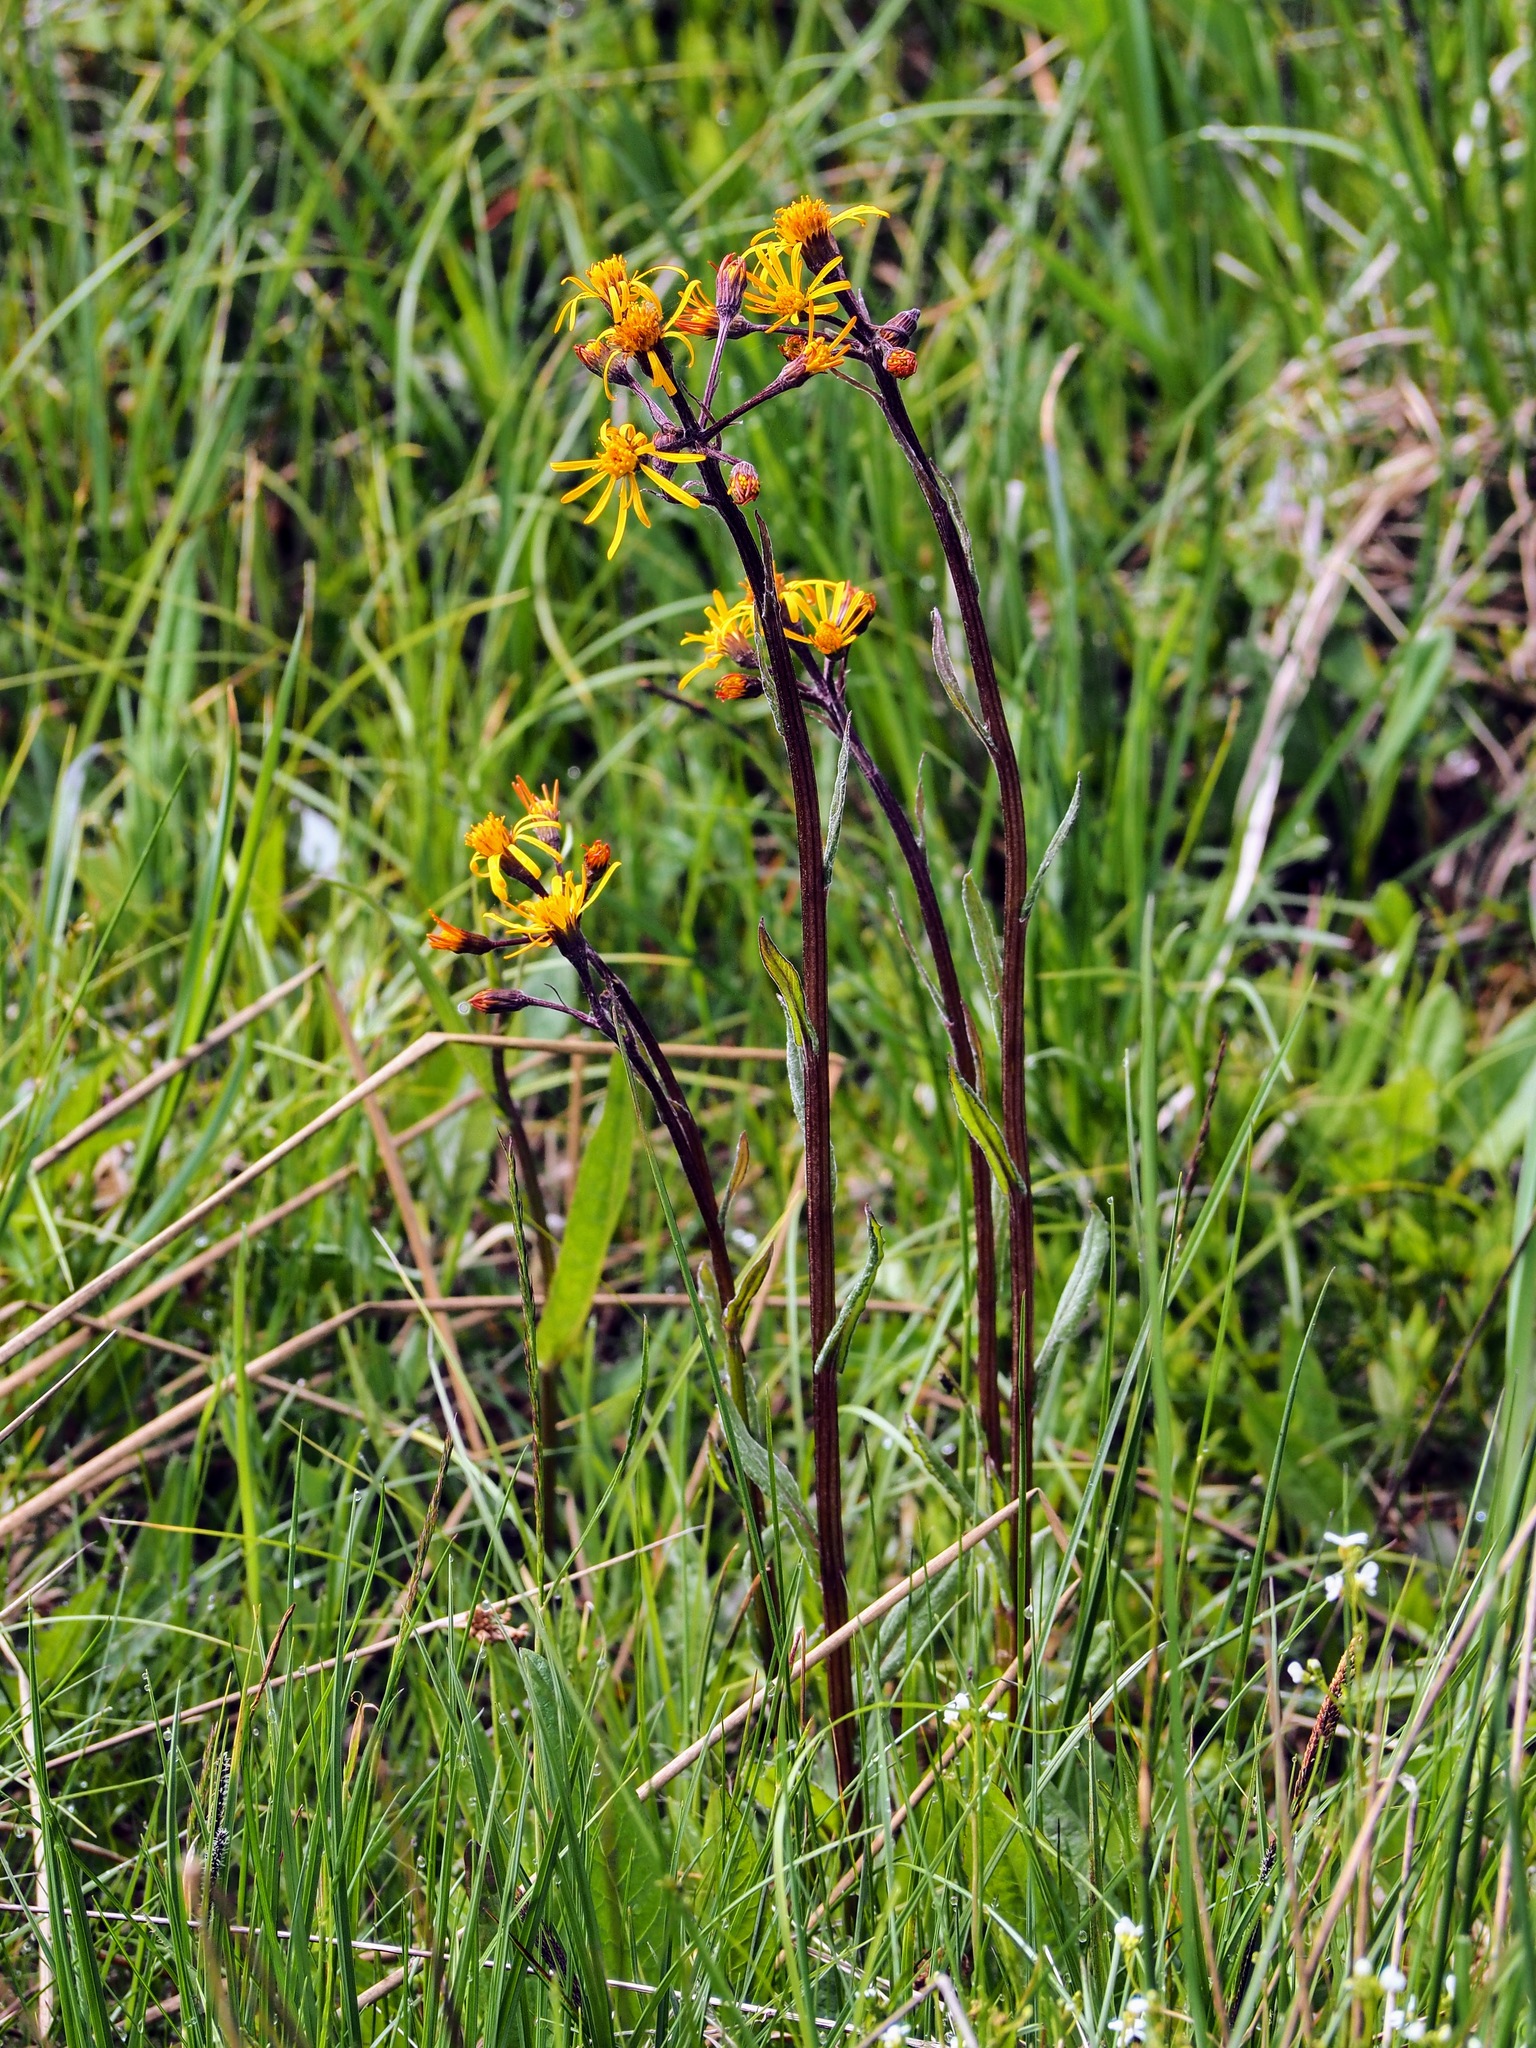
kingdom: Plantae
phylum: Tracheophyta
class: Magnoliopsida
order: Asterales
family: Asteraceae
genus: Tephroseris
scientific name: Tephroseris crispa
